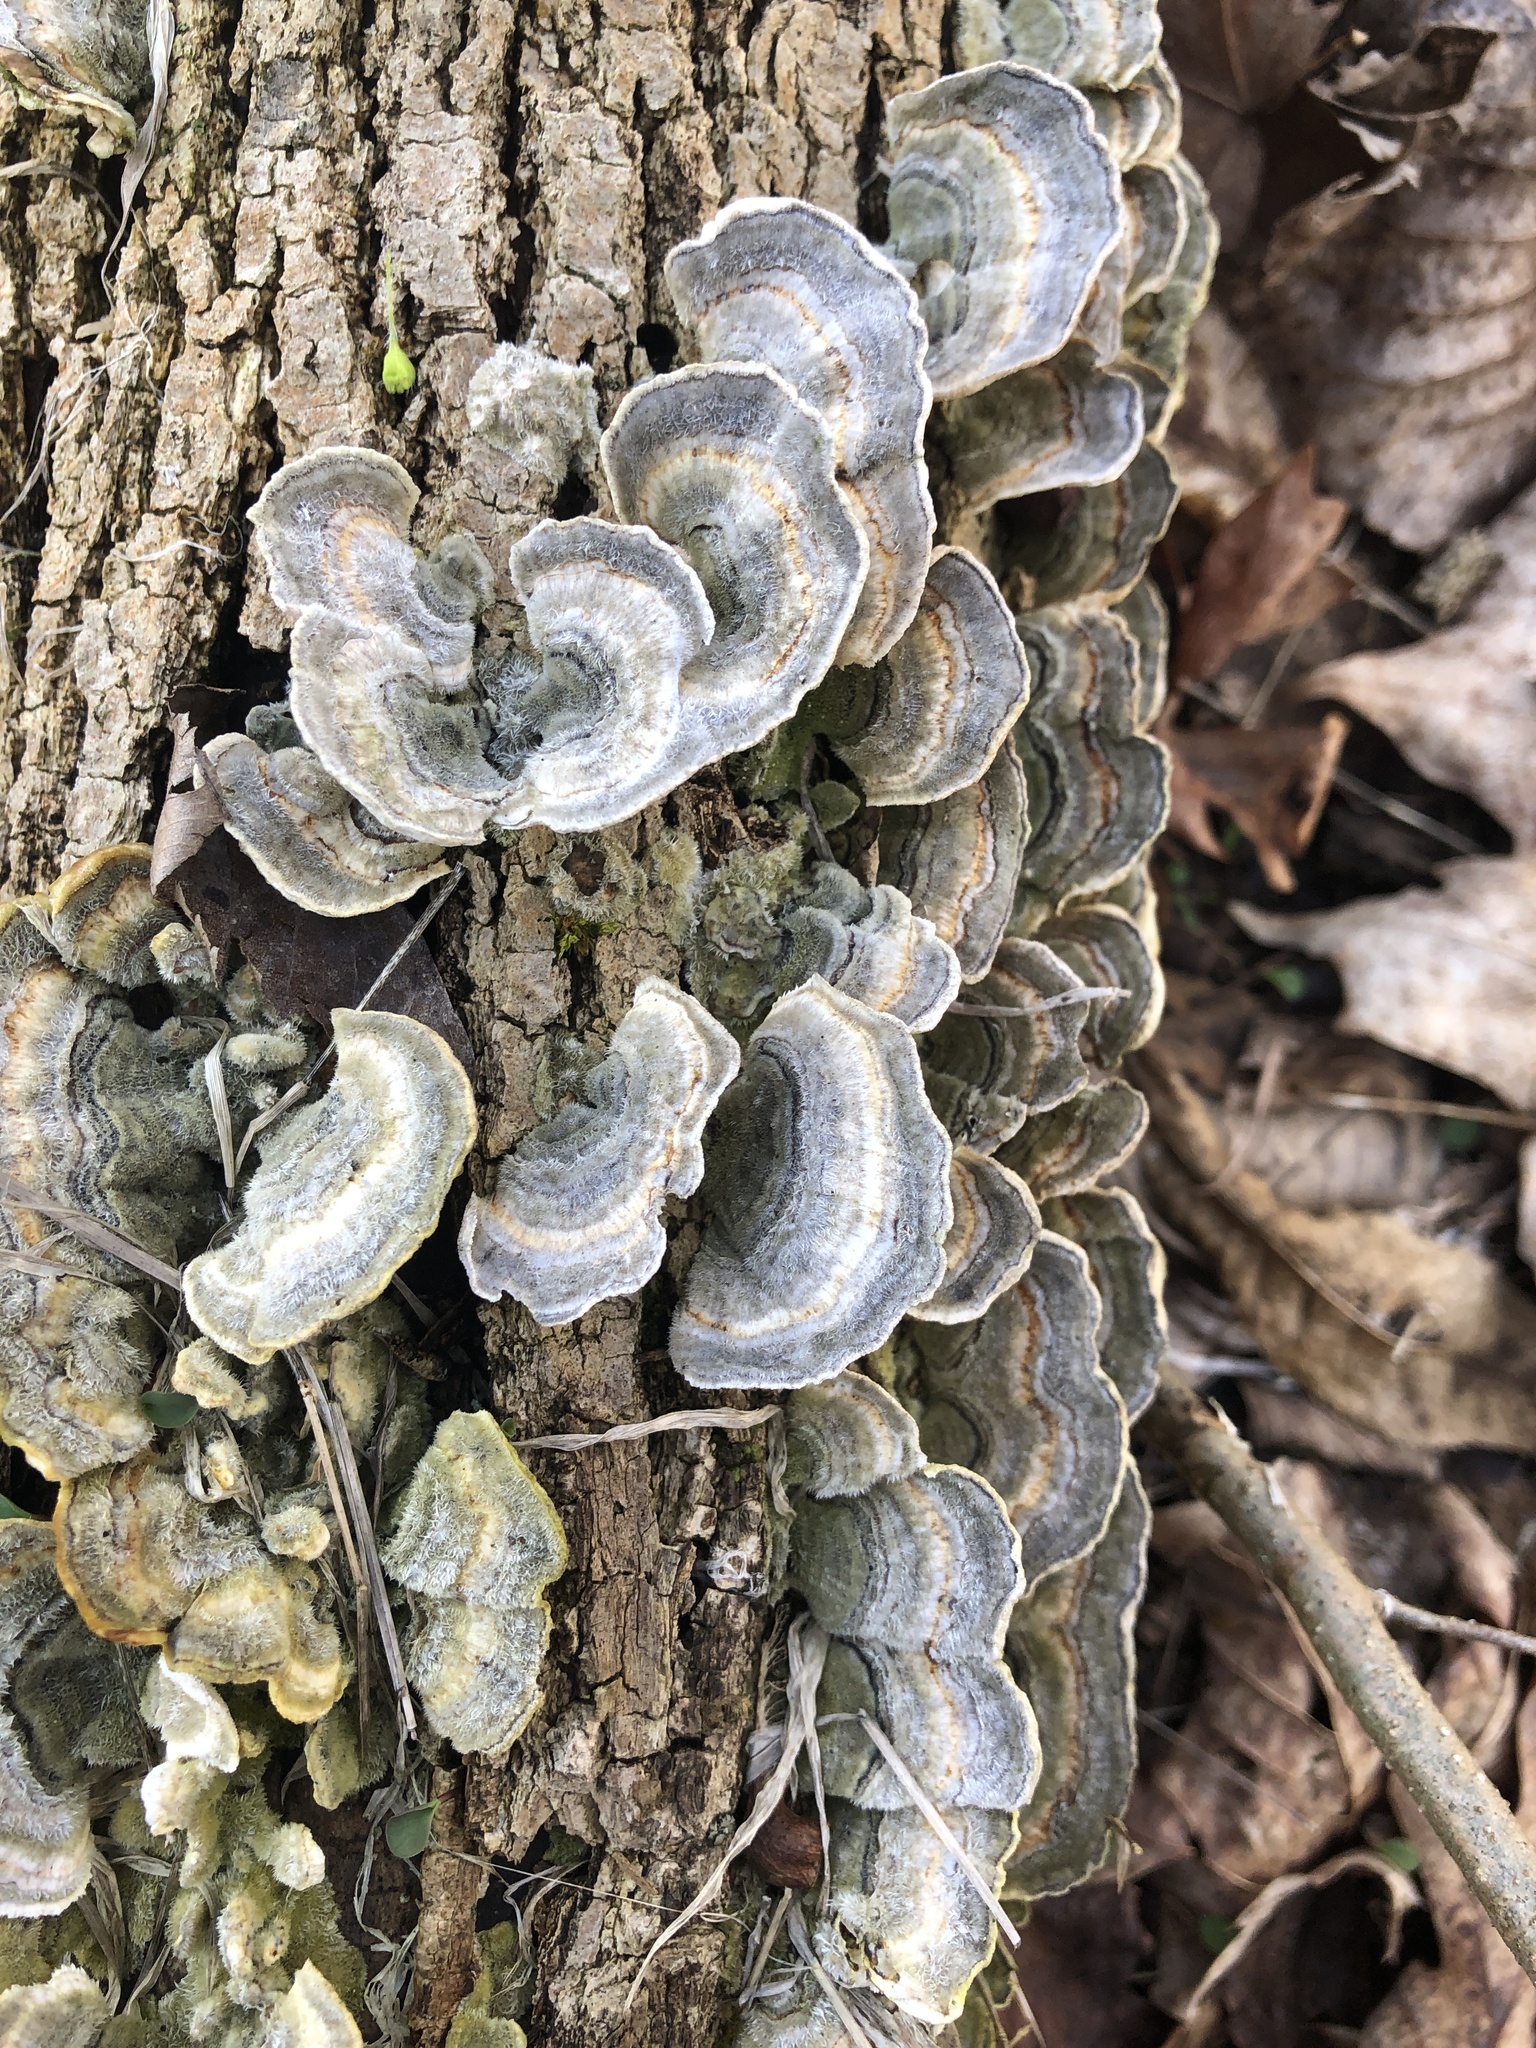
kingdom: Fungi
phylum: Basidiomycota
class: Agaricomycetes
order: Polyporales
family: Polyporaceae
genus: Trametes
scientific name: Trametes versicolor
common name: Turkeytail
